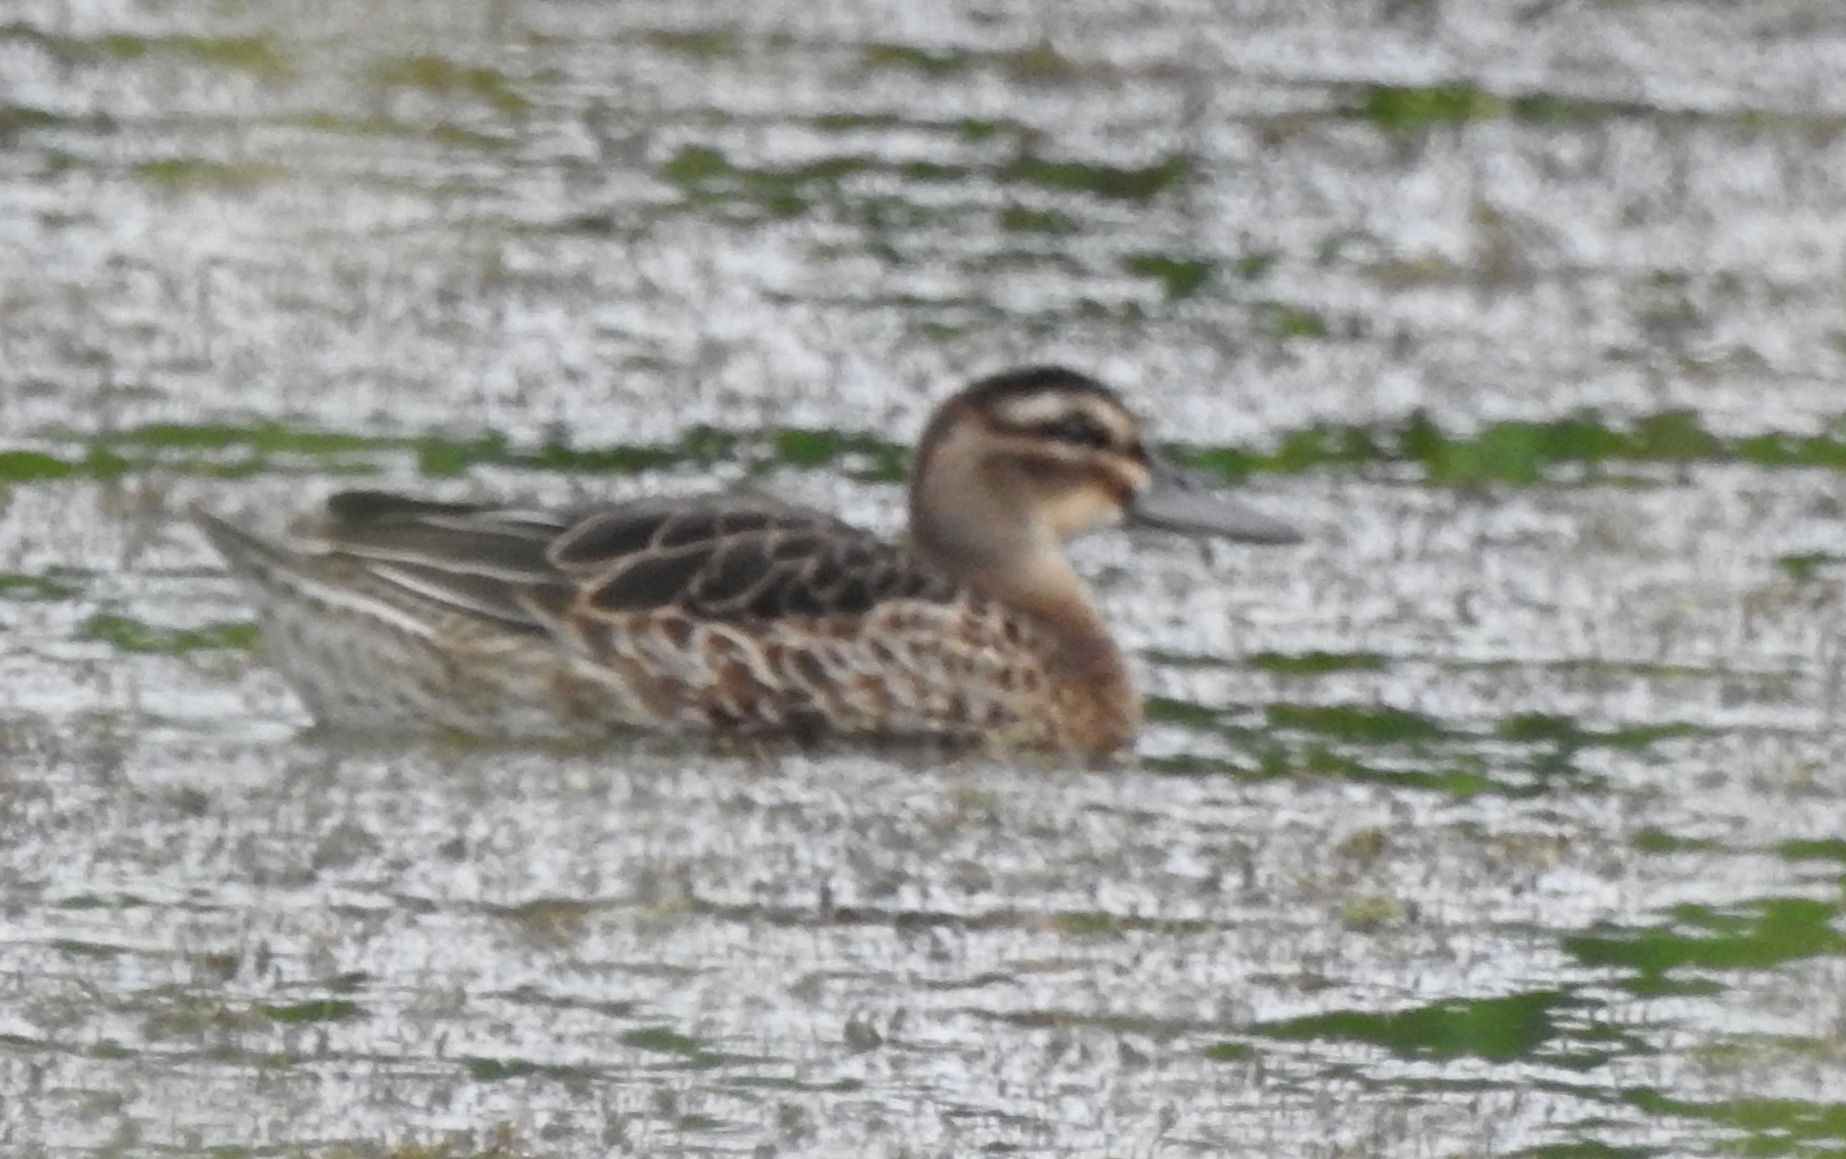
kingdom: Animalia
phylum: Chordata
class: Aves
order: Anseriformes
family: Anatidae
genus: Spatula
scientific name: Spatula querquedula
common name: Garganey
